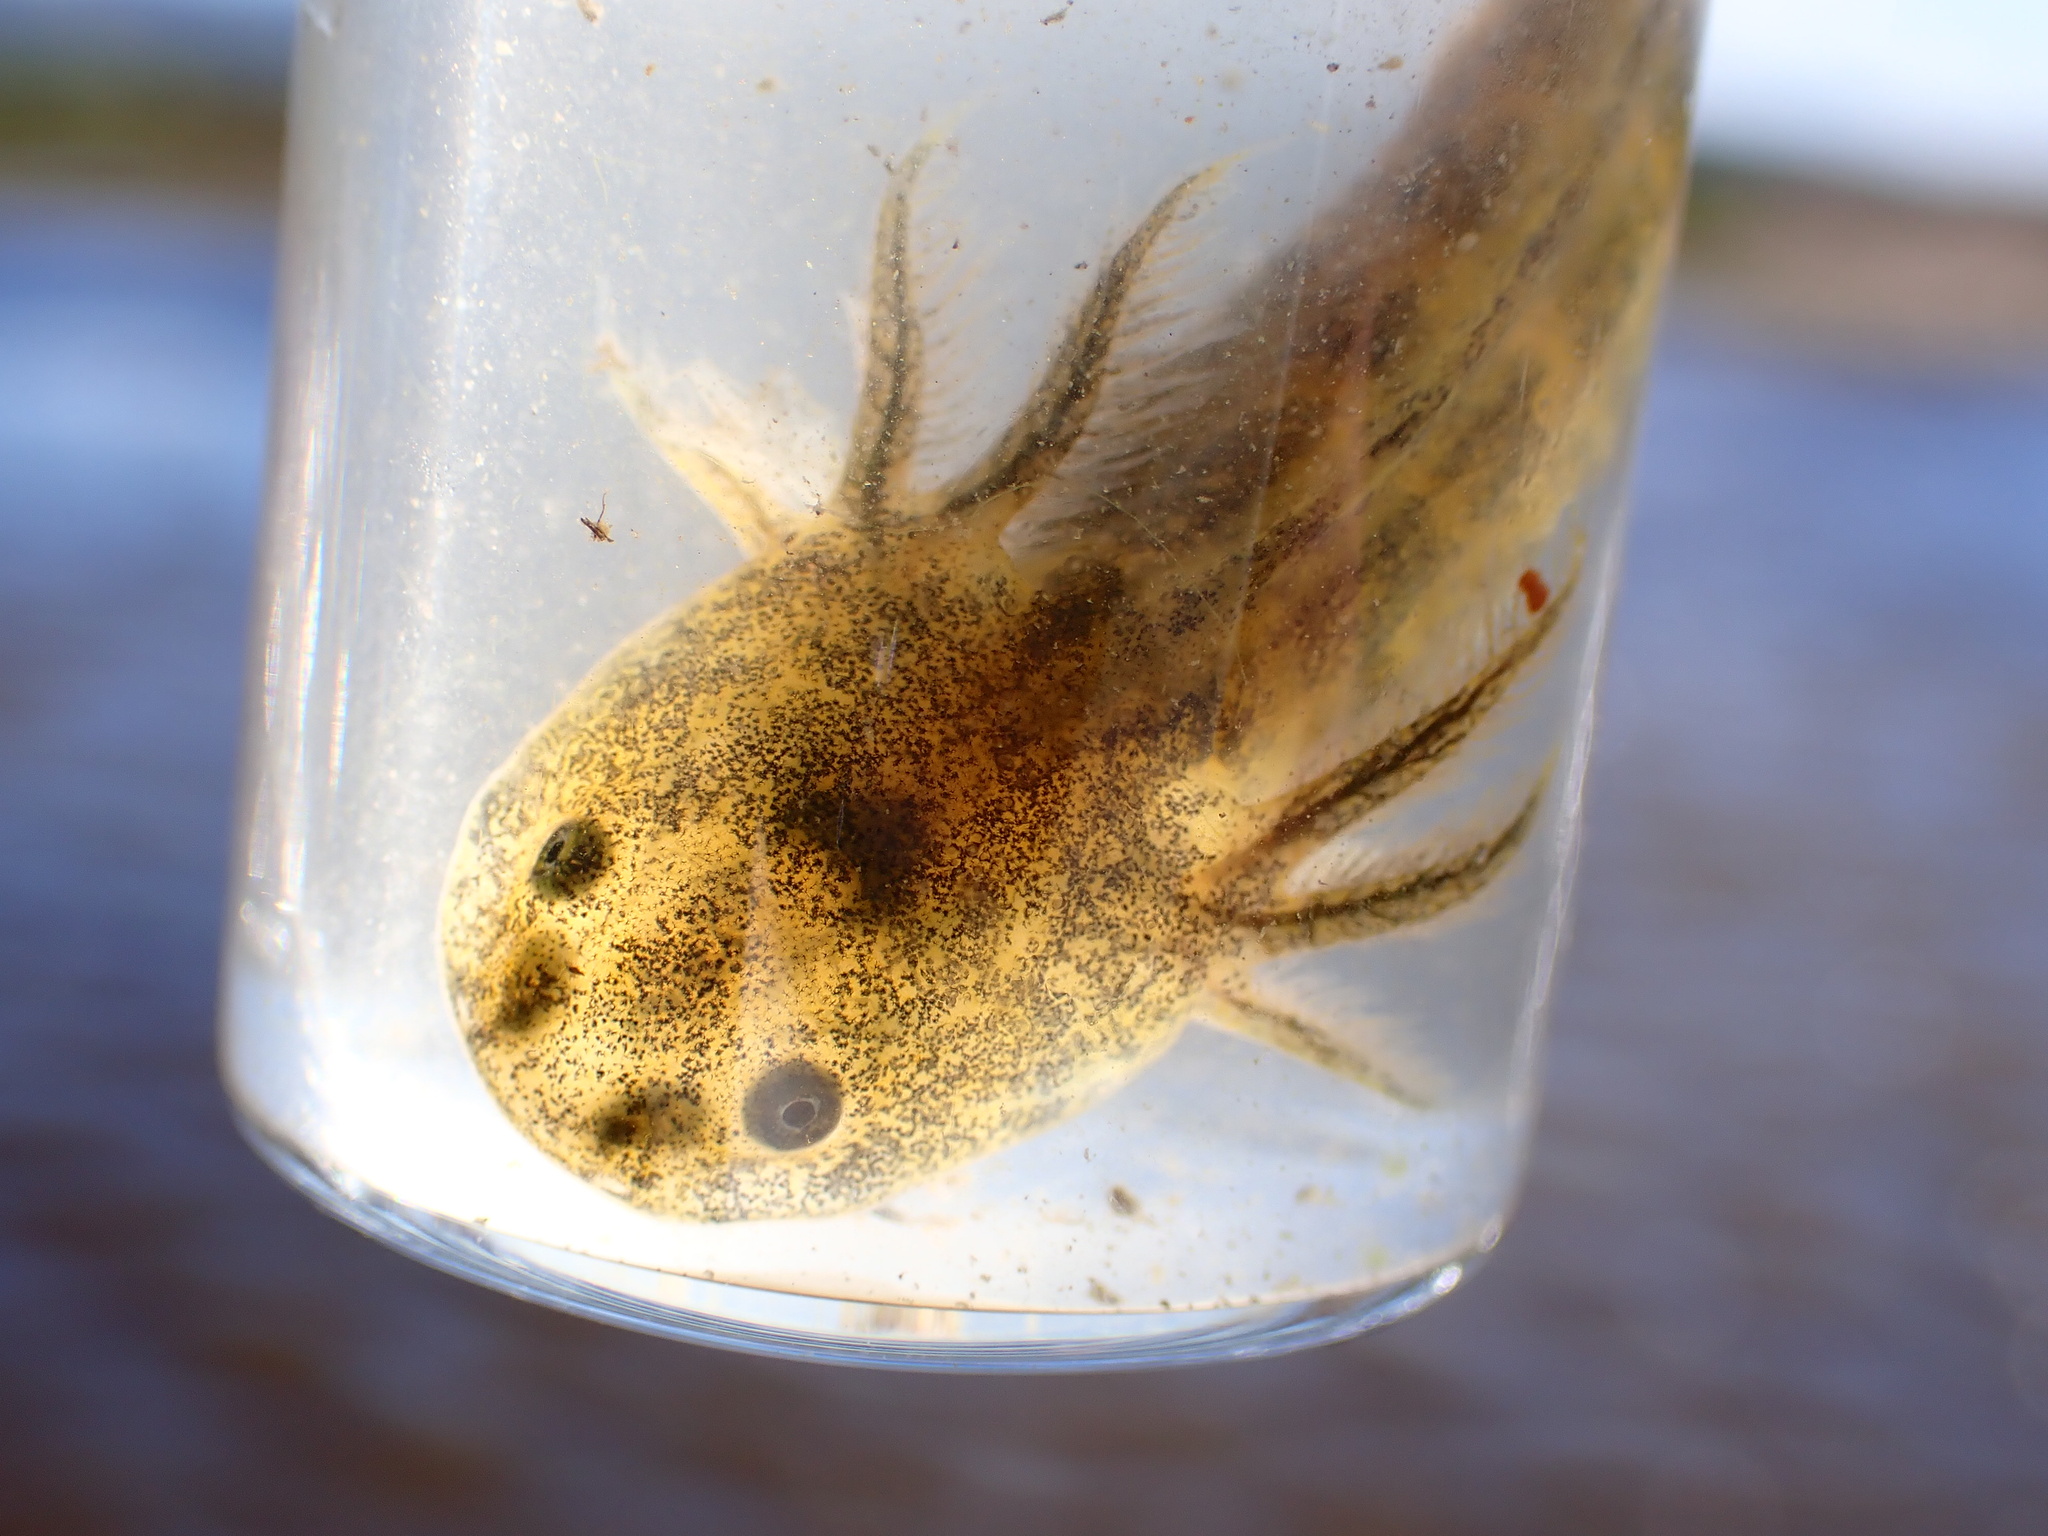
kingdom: Animalia
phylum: Chordata
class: Amphibia
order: Caudata
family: Ambystomatidae
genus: Ambystoma
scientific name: Ambystoma californiense
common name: California tiger salamander
